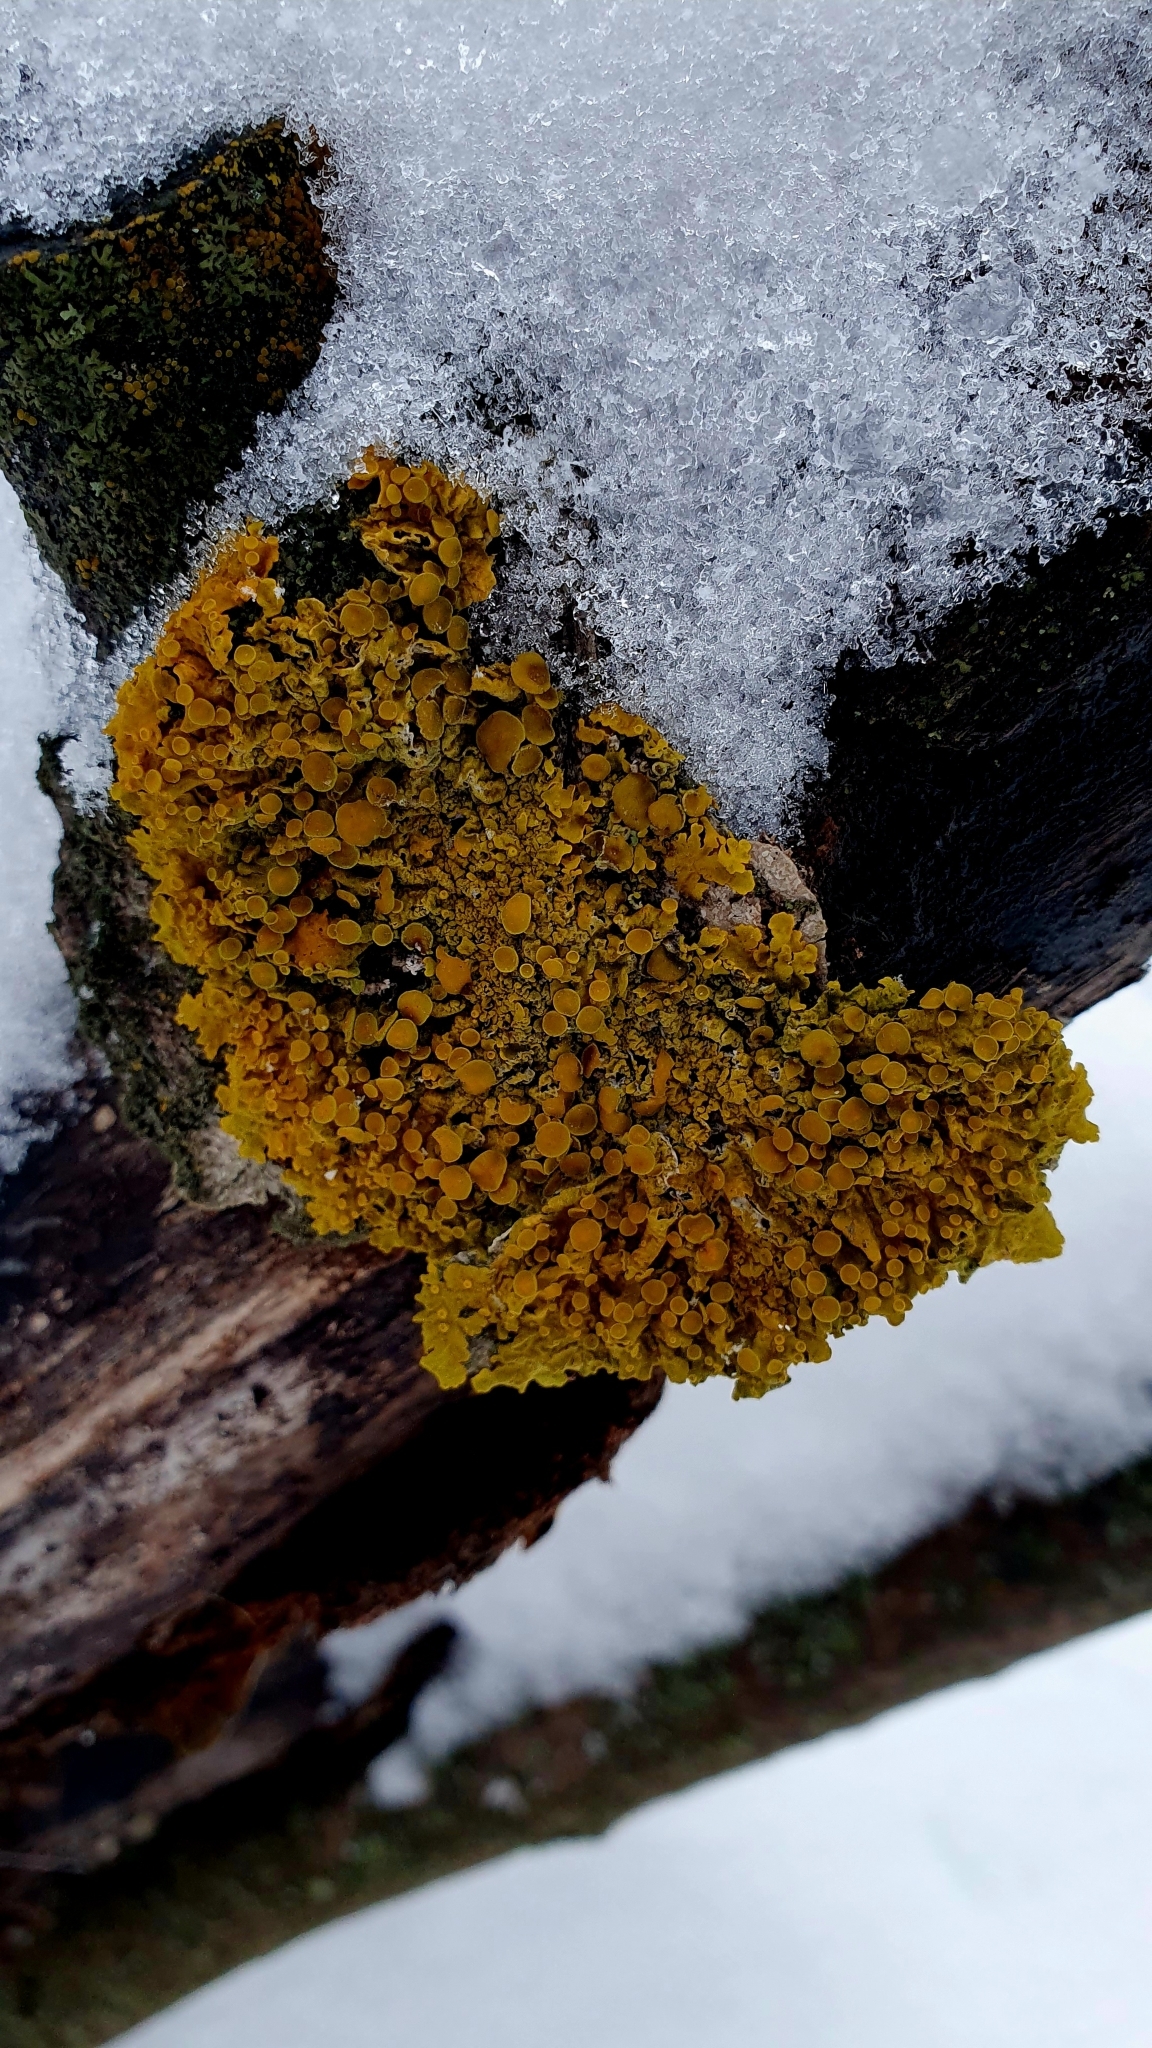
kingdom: Fungi
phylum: Ascomycota
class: Lecanoromycetes
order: Teloschistales
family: Teloschistaceae
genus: Xanthoria
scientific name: Xanthoria parietina
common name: Common orange lichen
